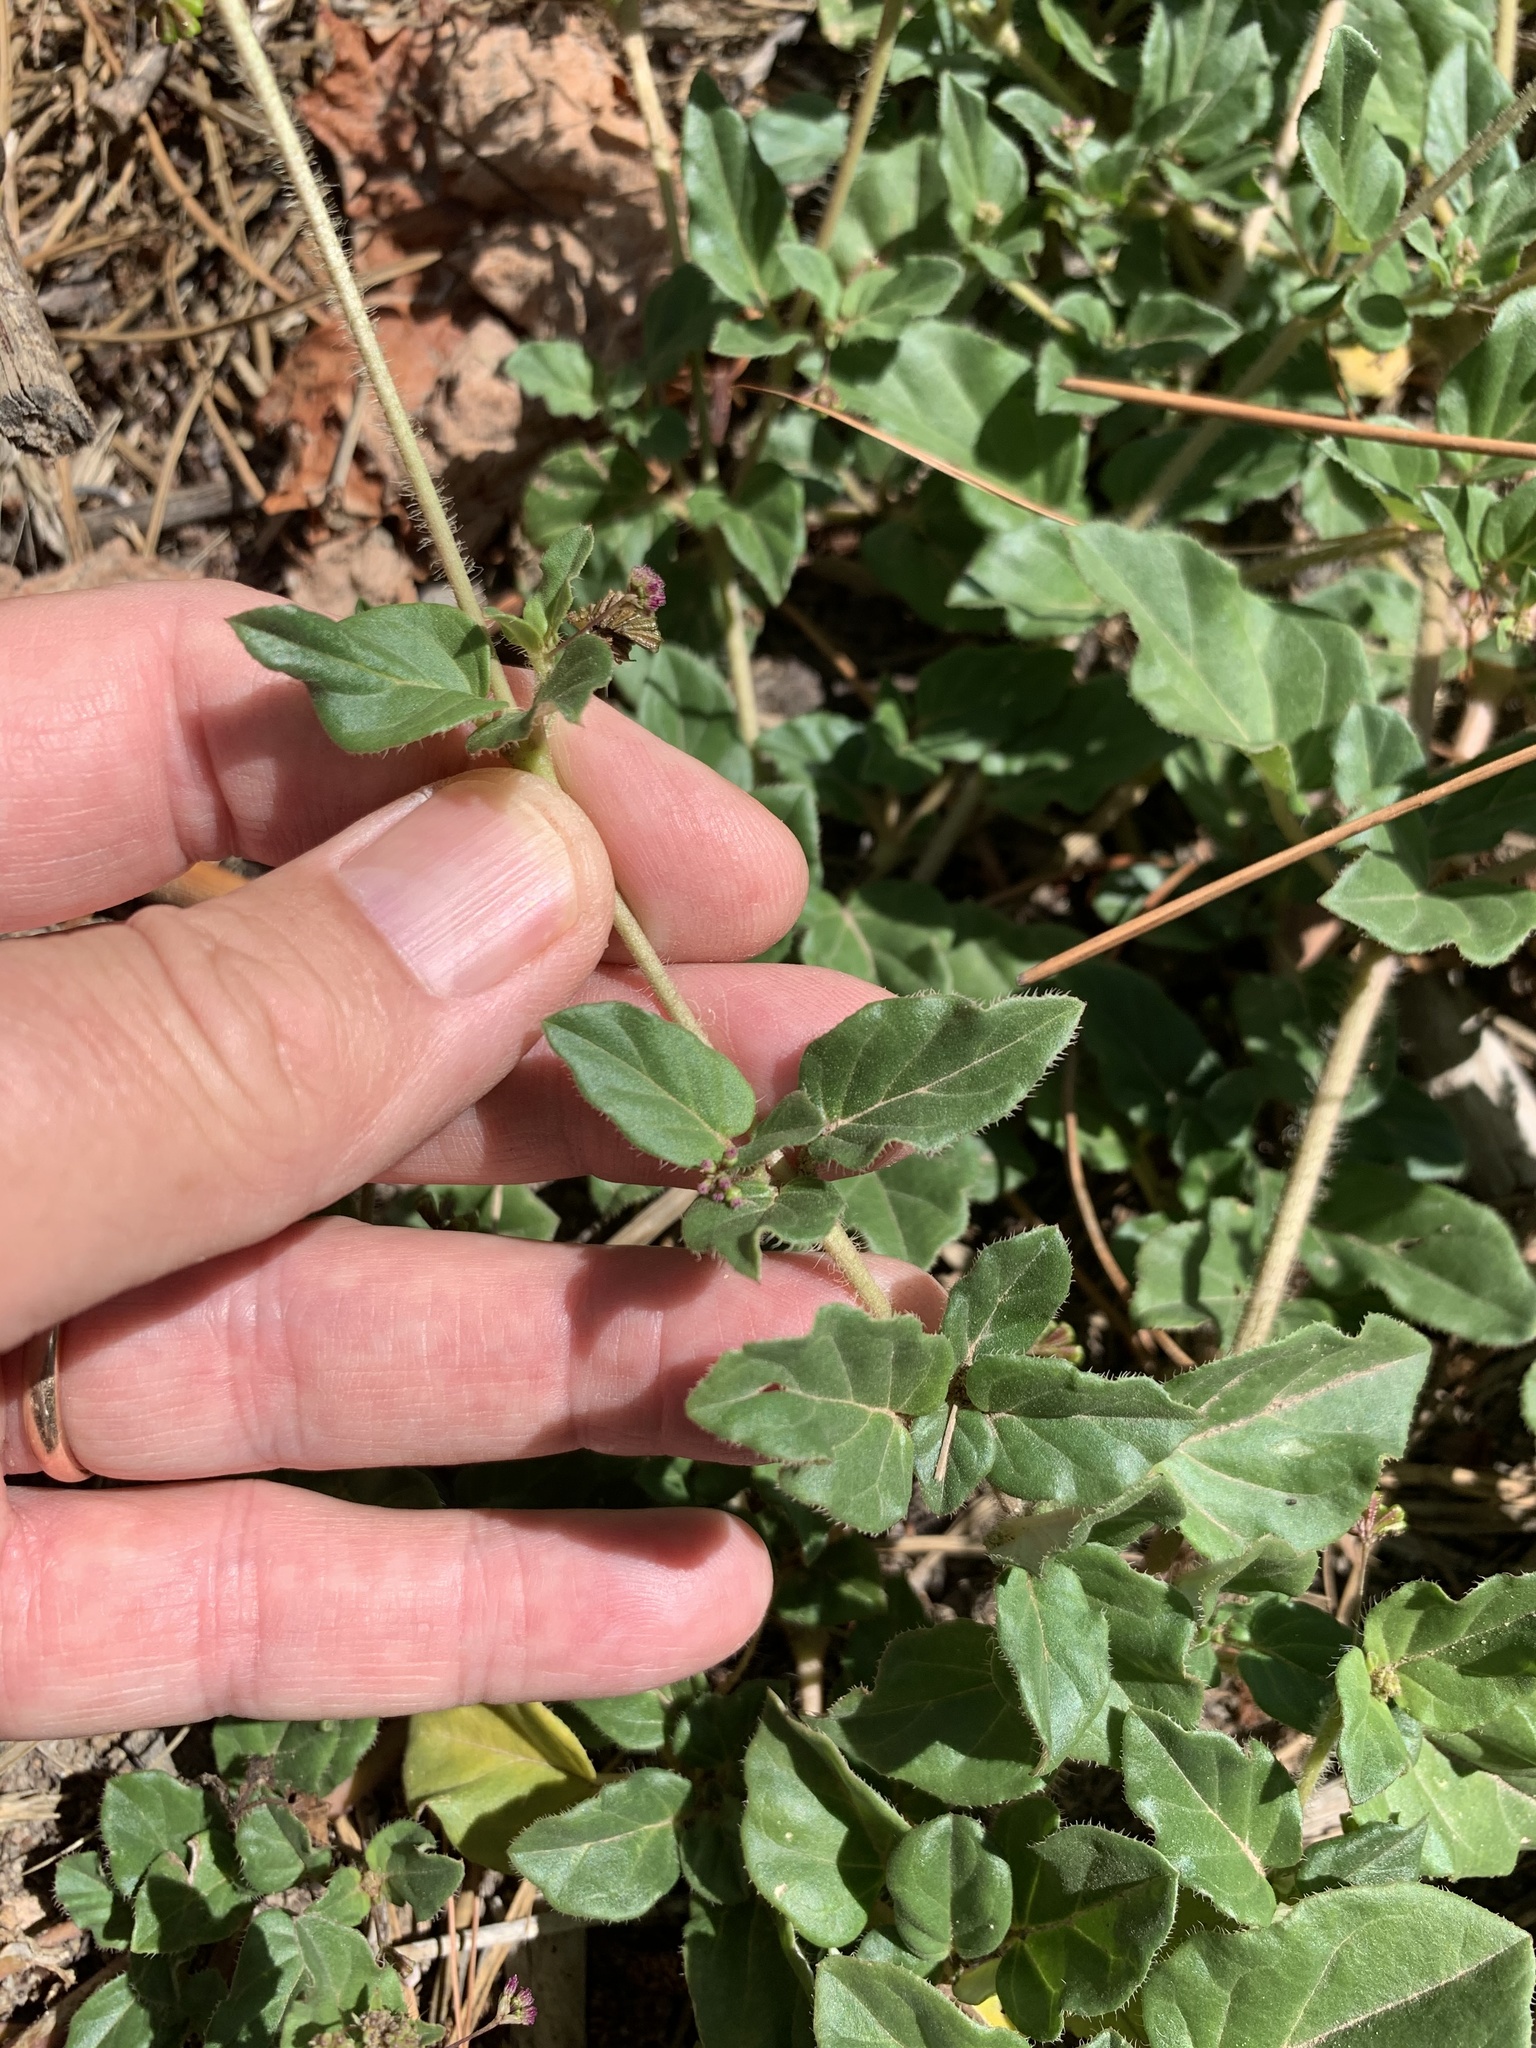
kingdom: Plantae
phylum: Tracheophyta
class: Magnoliopsida
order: Caryophyllales
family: Nyctaginaceae
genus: Boerhavia
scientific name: Boerhavia erecta
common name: Erect spiderling
